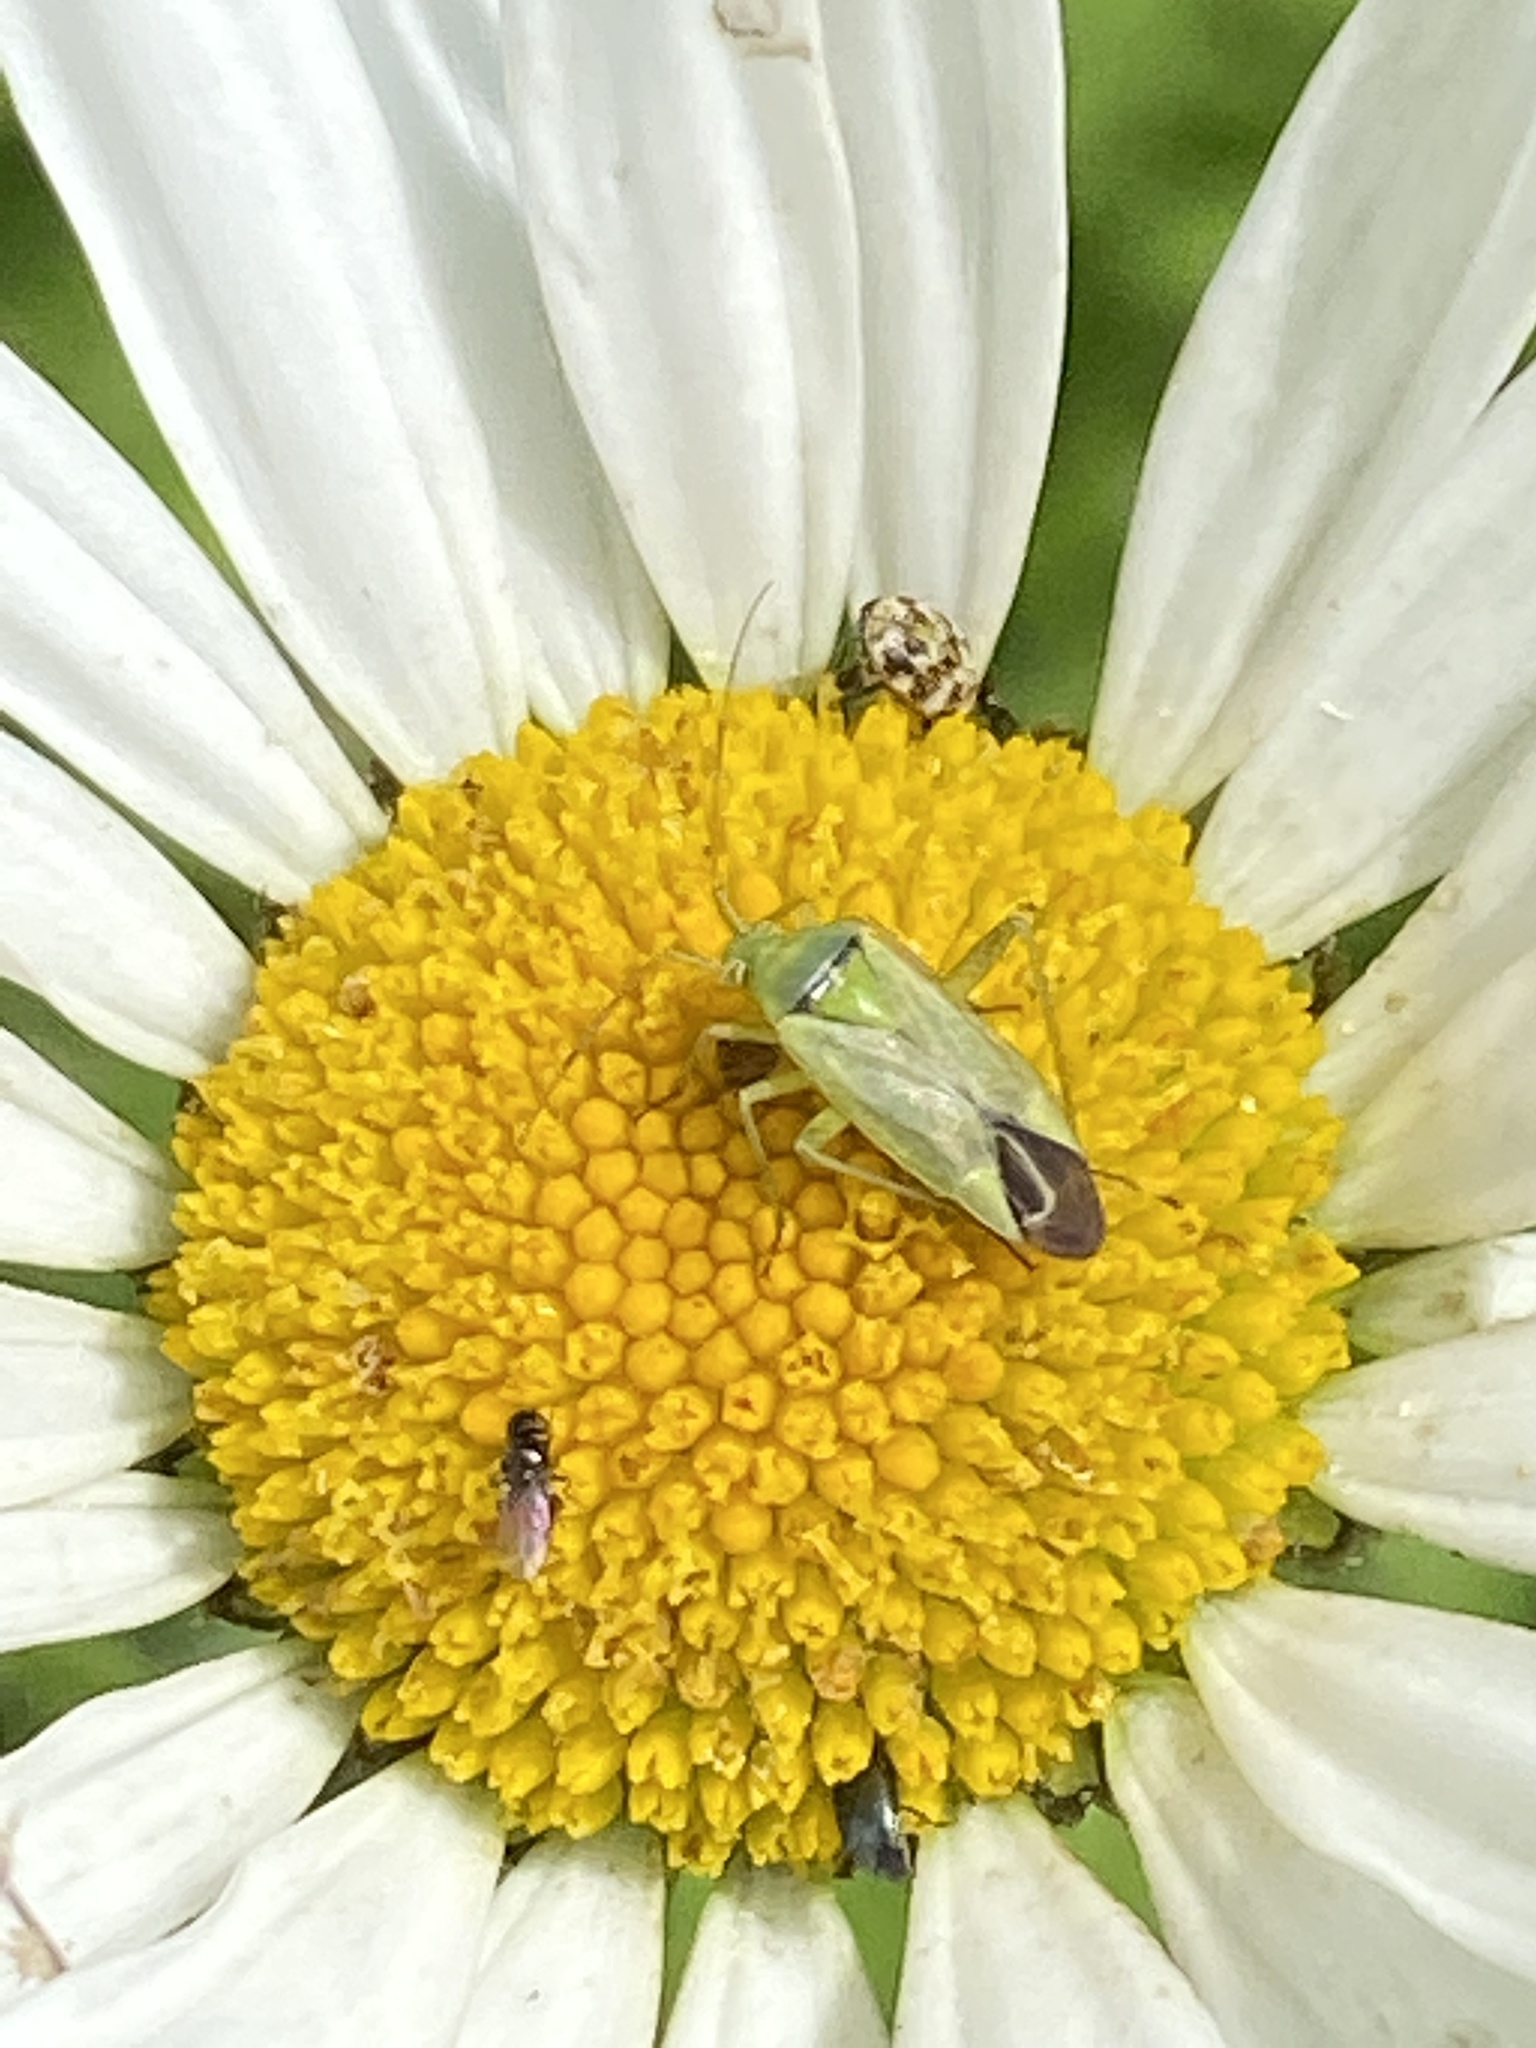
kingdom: Animalia
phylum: Arthropoda
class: Insecta
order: Hemiptera
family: Miridae
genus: Closterotomus
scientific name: Closterotomus norvegicus
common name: Plant bug
